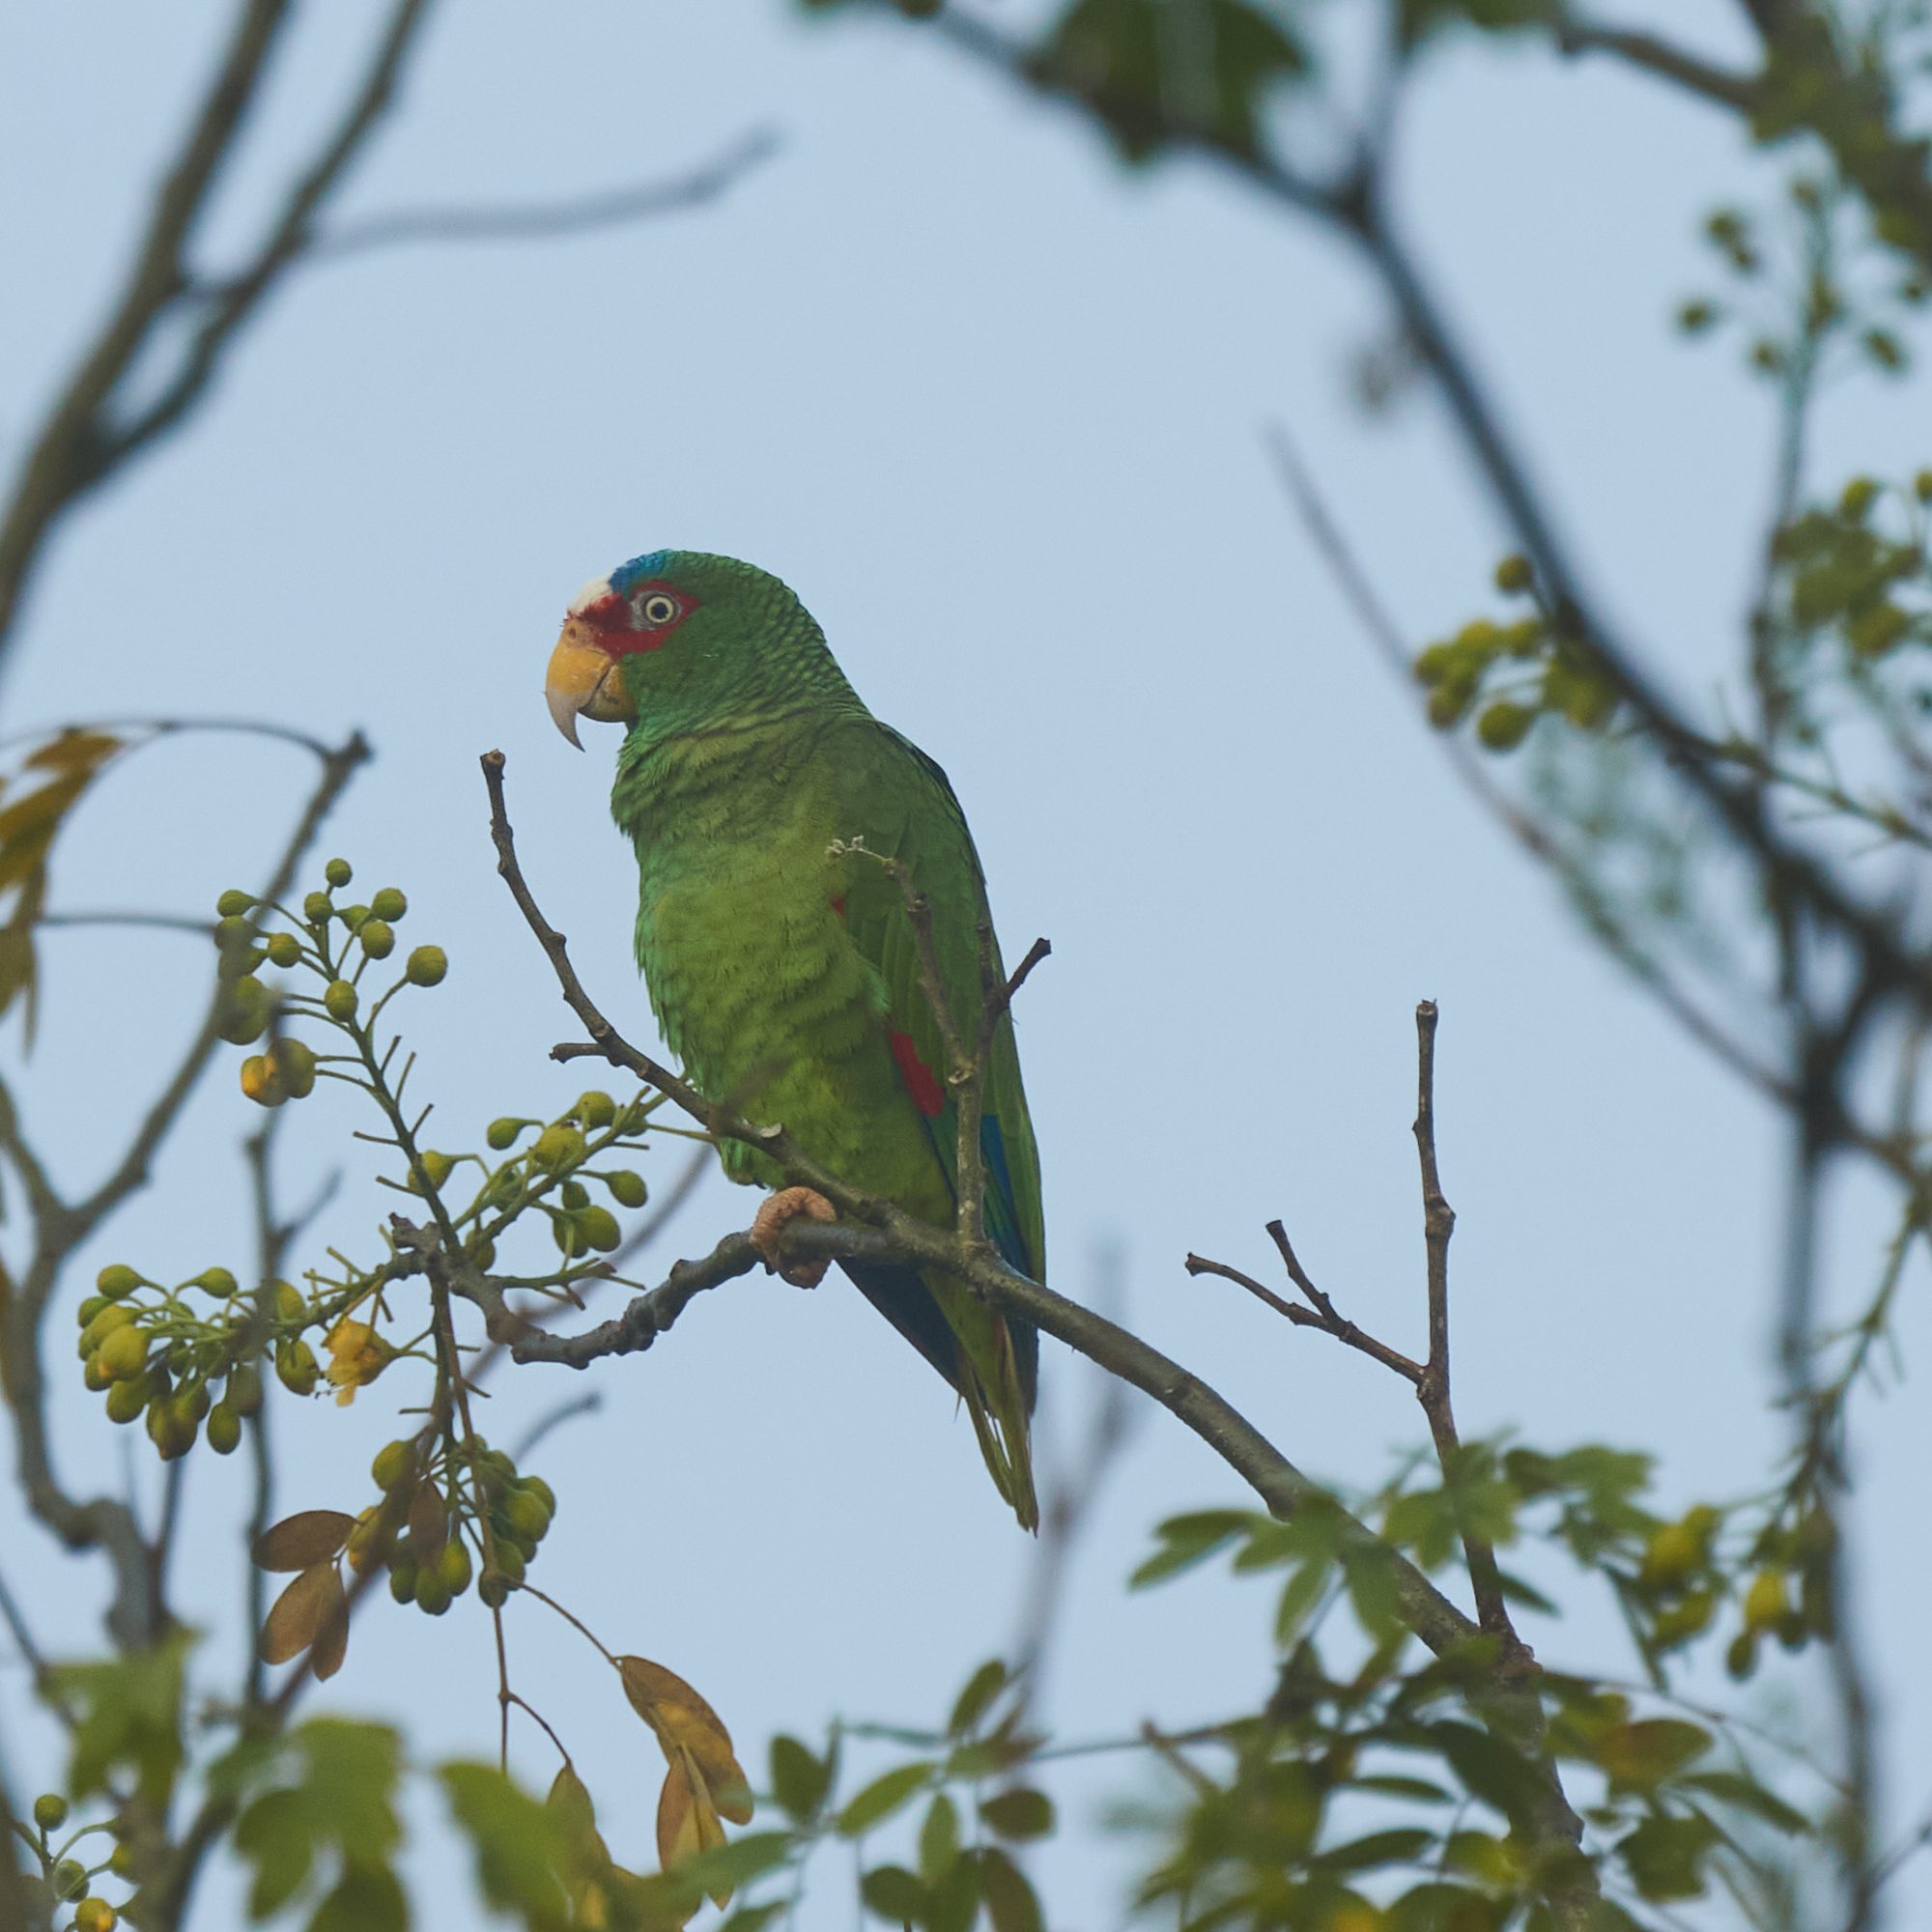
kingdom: Animalia
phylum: Chordata
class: Aves
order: Psittaciformes
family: Psittacidae
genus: Amazona
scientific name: Amazona albifrons
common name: White-fronted amazon
